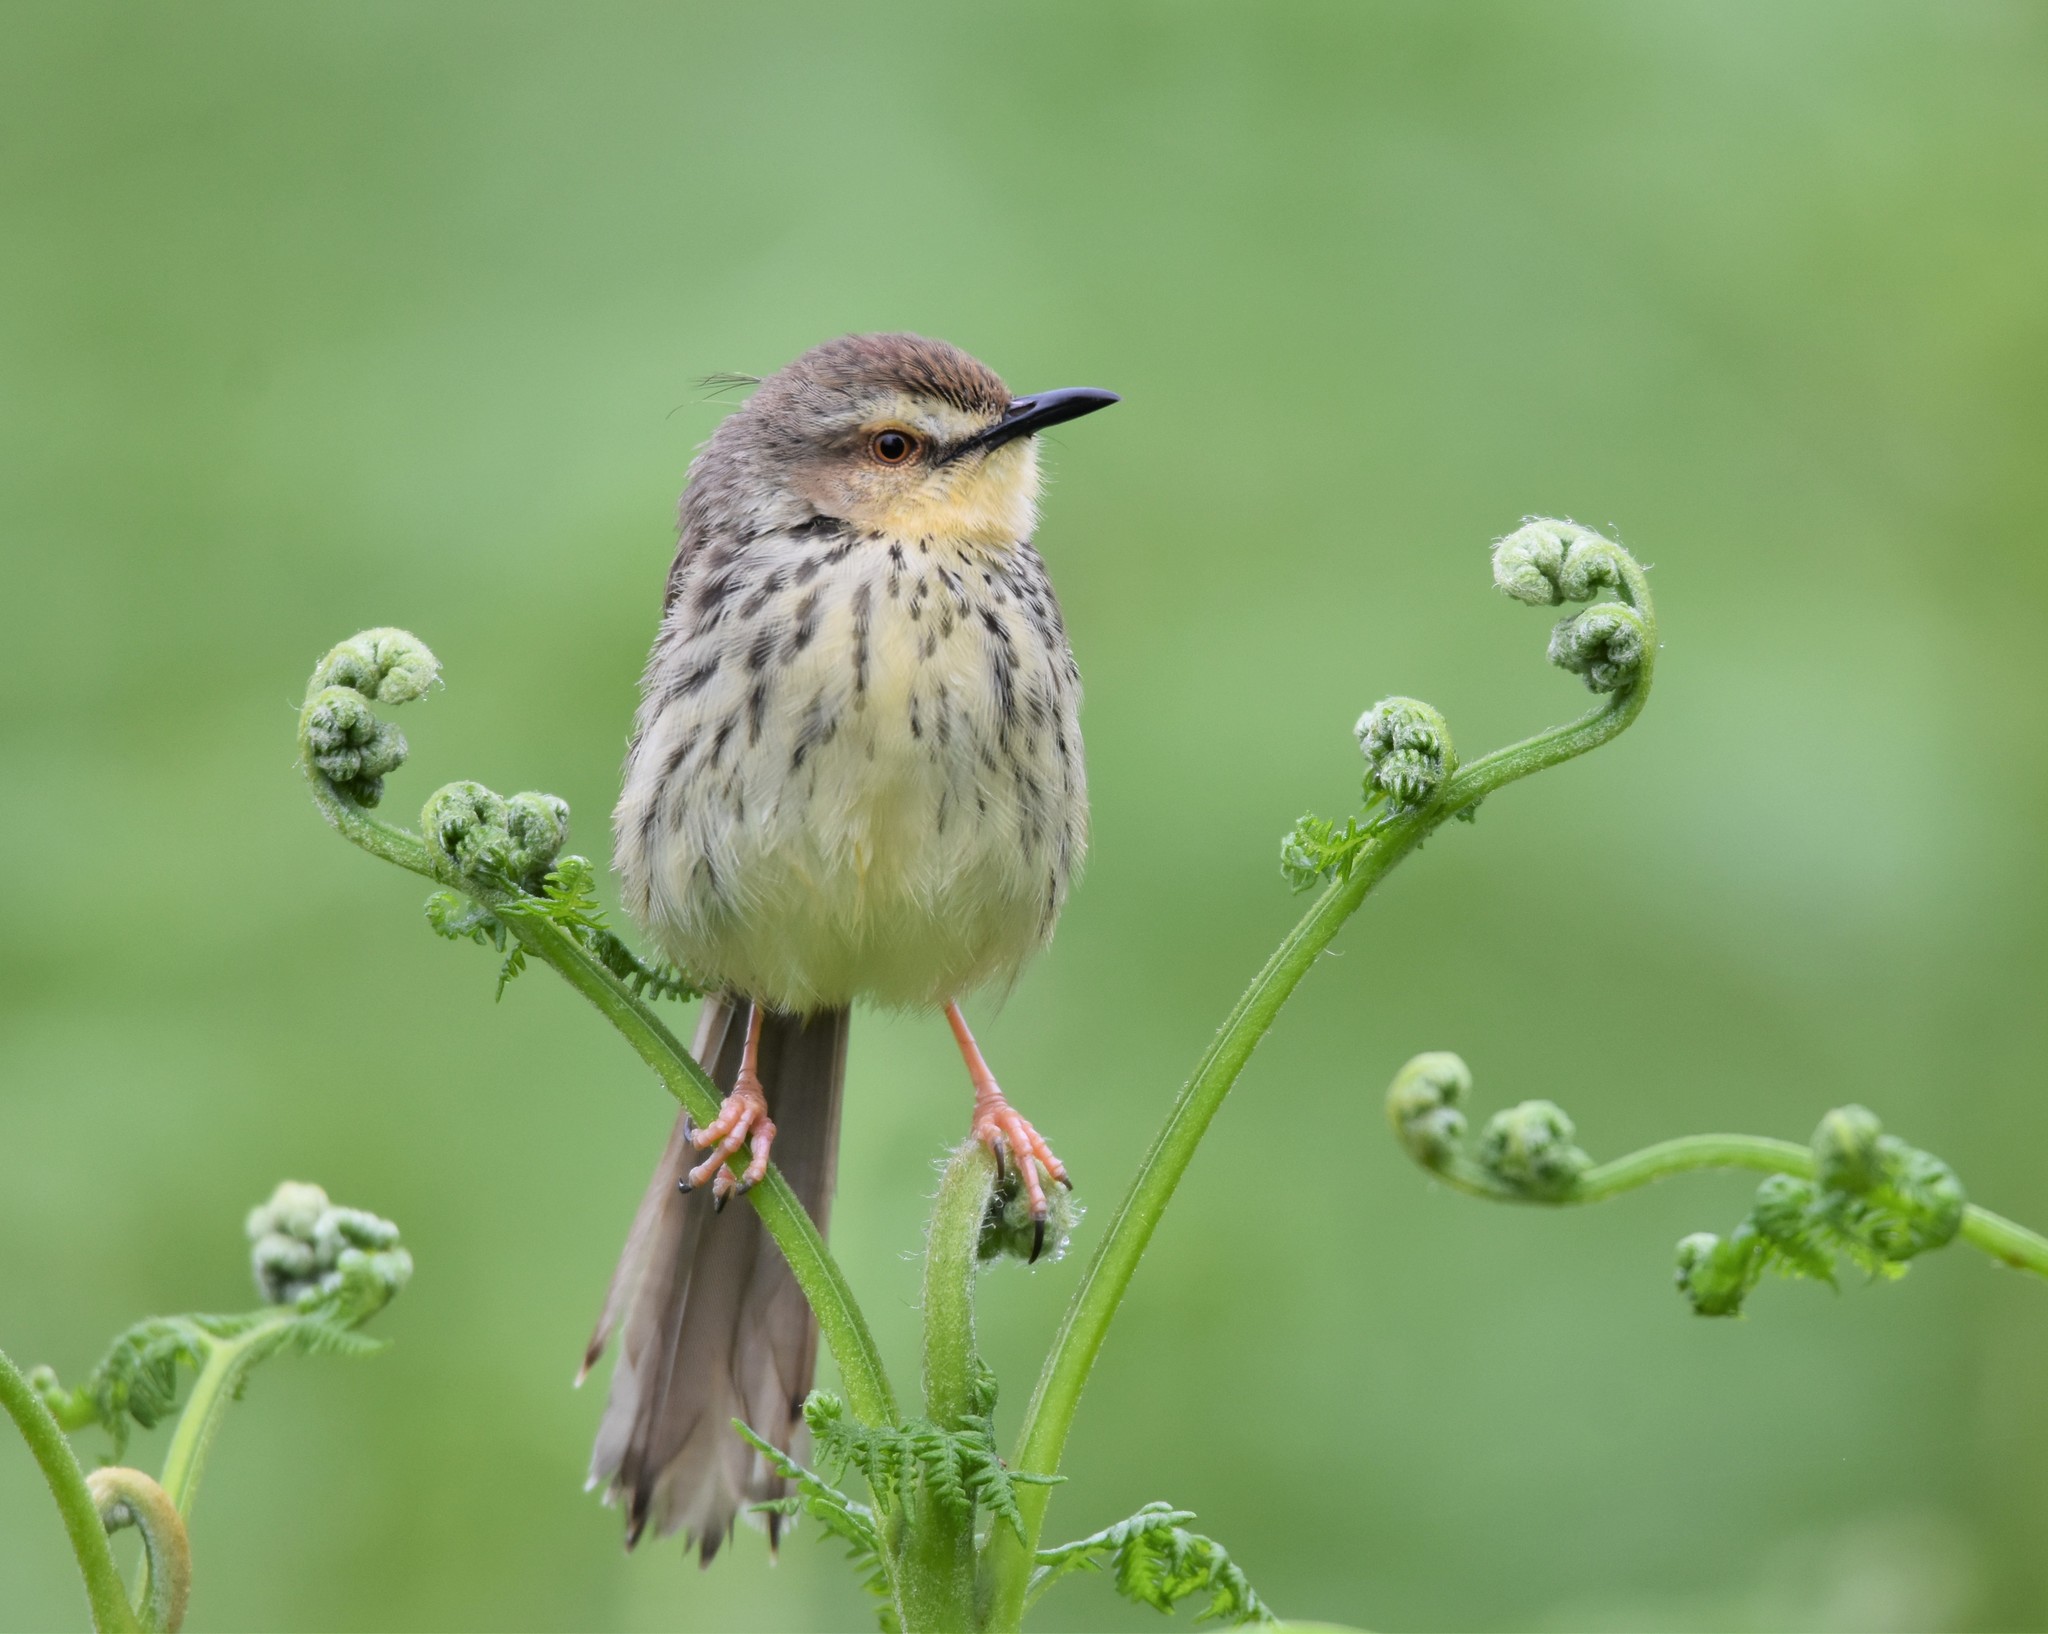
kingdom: Animalia
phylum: Chordata
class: Aves
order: Passeriformes
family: Cisticolidae
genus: Prinia
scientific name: Prinia hypoxantha
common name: Drakensberg prinia
